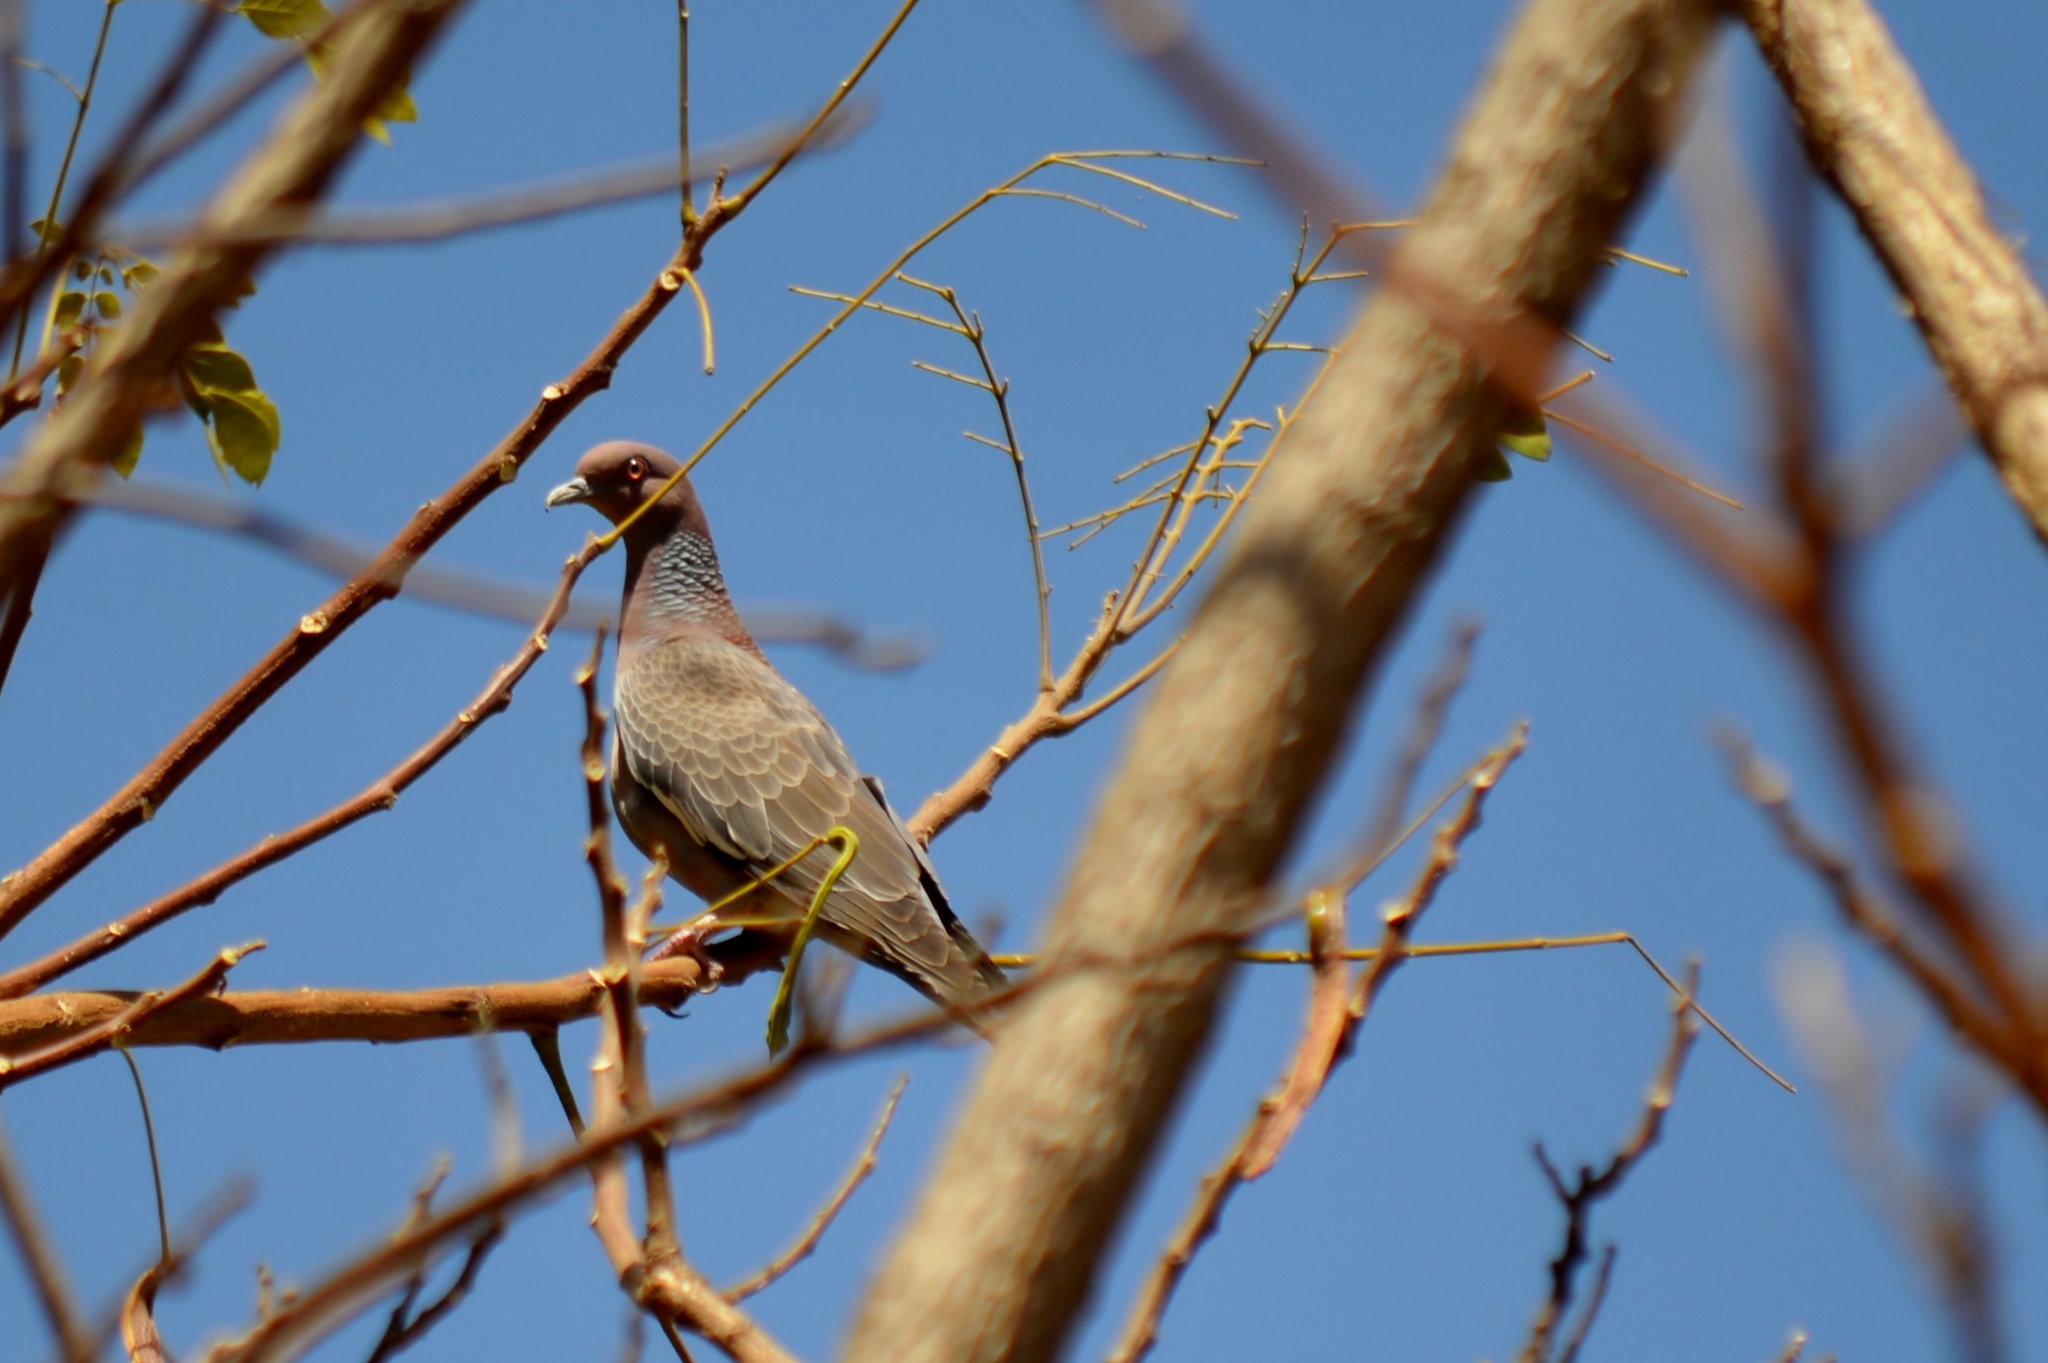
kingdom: Animalia
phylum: Chordata
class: Aves
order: Columbiformes
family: Columbidae
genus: Patagioenas
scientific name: Patagioenas picazuro
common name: Picazuro pigeon
